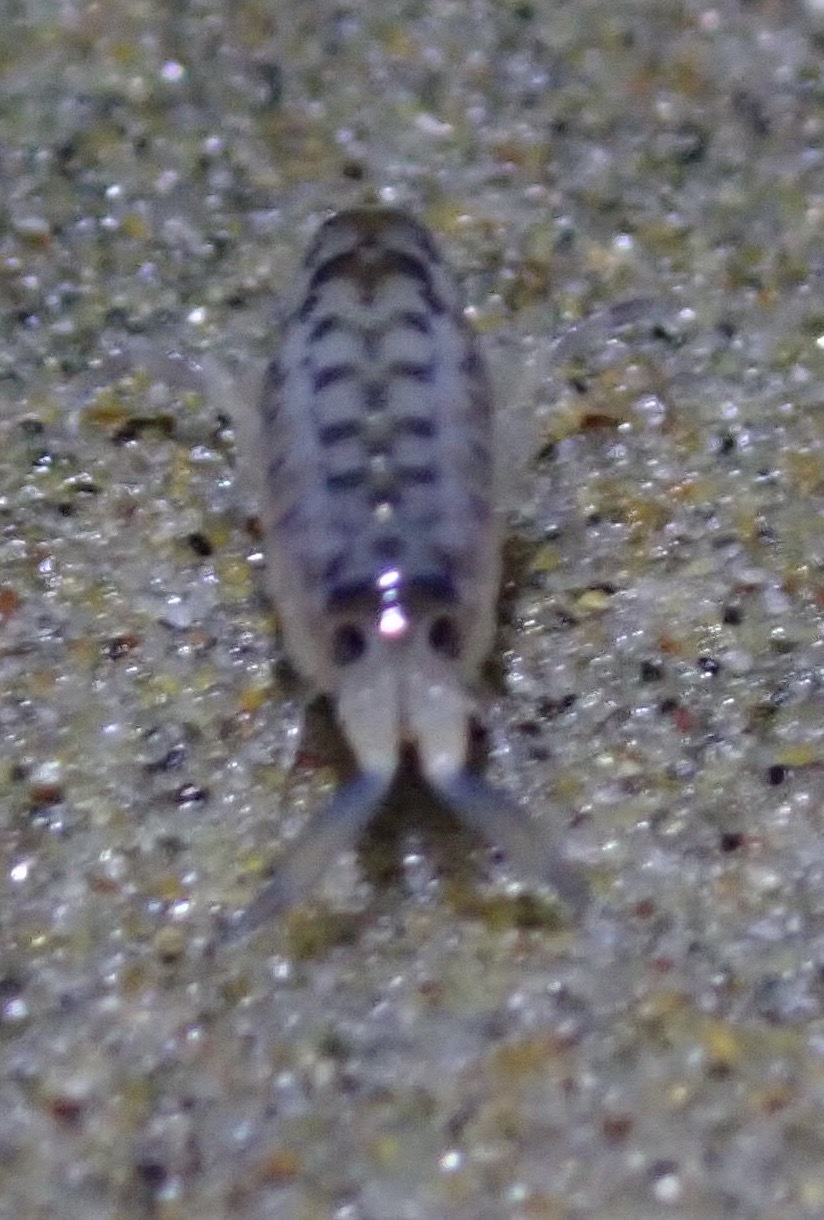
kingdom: Animalia
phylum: Arthropoda
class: Malacostraca
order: Amphipoda
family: Talitridae
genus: Megalorchestia
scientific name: Megalorchestia benedicti
